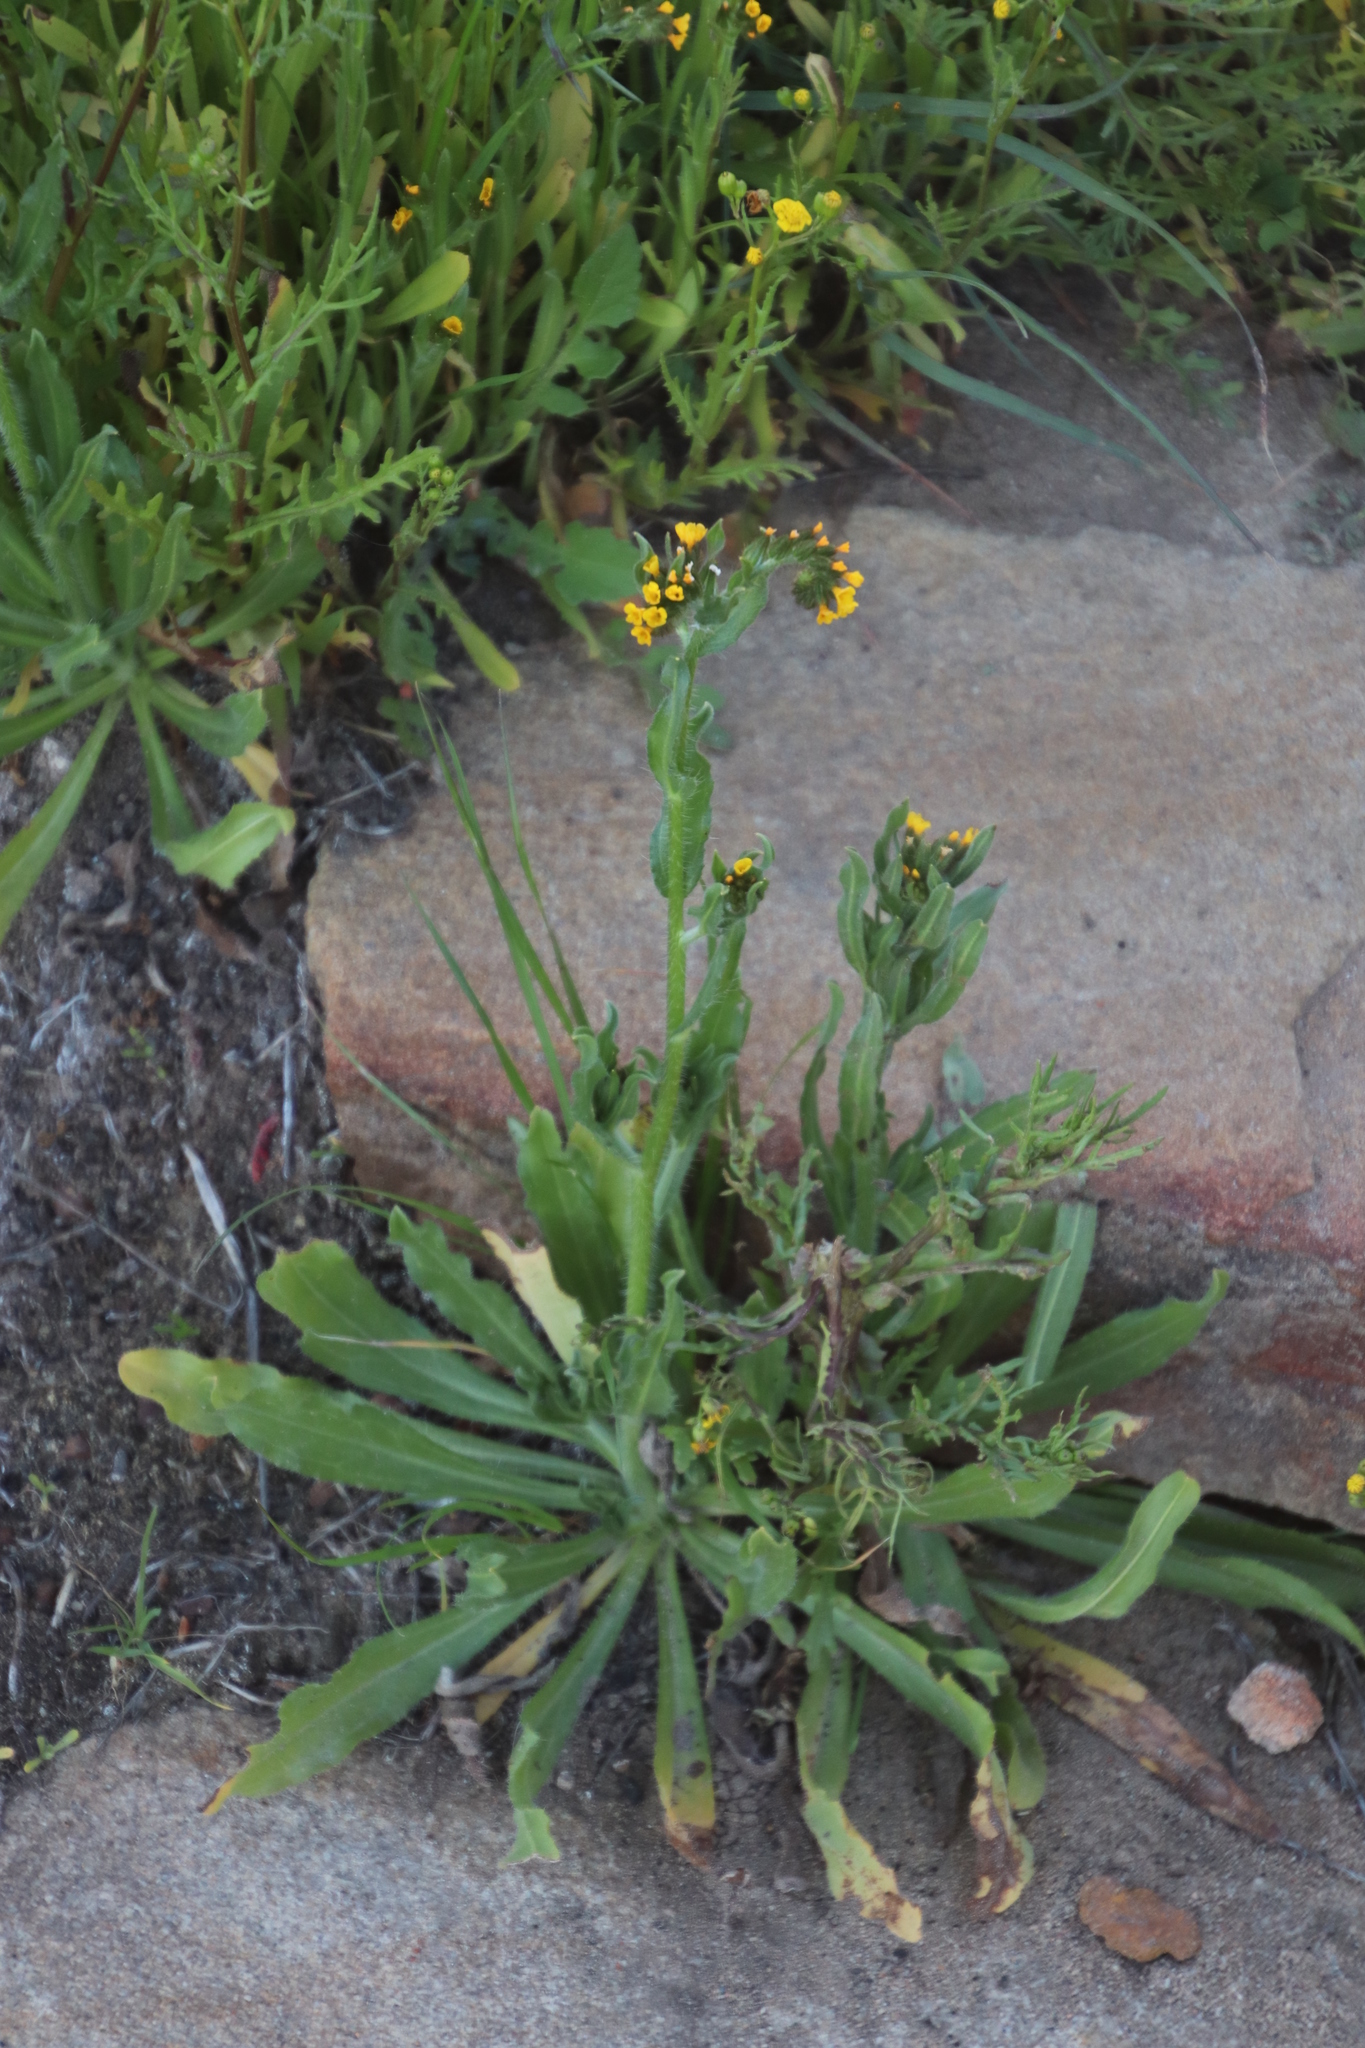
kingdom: Plantae
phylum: Tracheophyta
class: Magnoliopsida
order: Boraginales
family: Boraginaceae
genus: Amsinckia
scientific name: Amsinckia menziesii
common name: Menzies' fiddleneck
